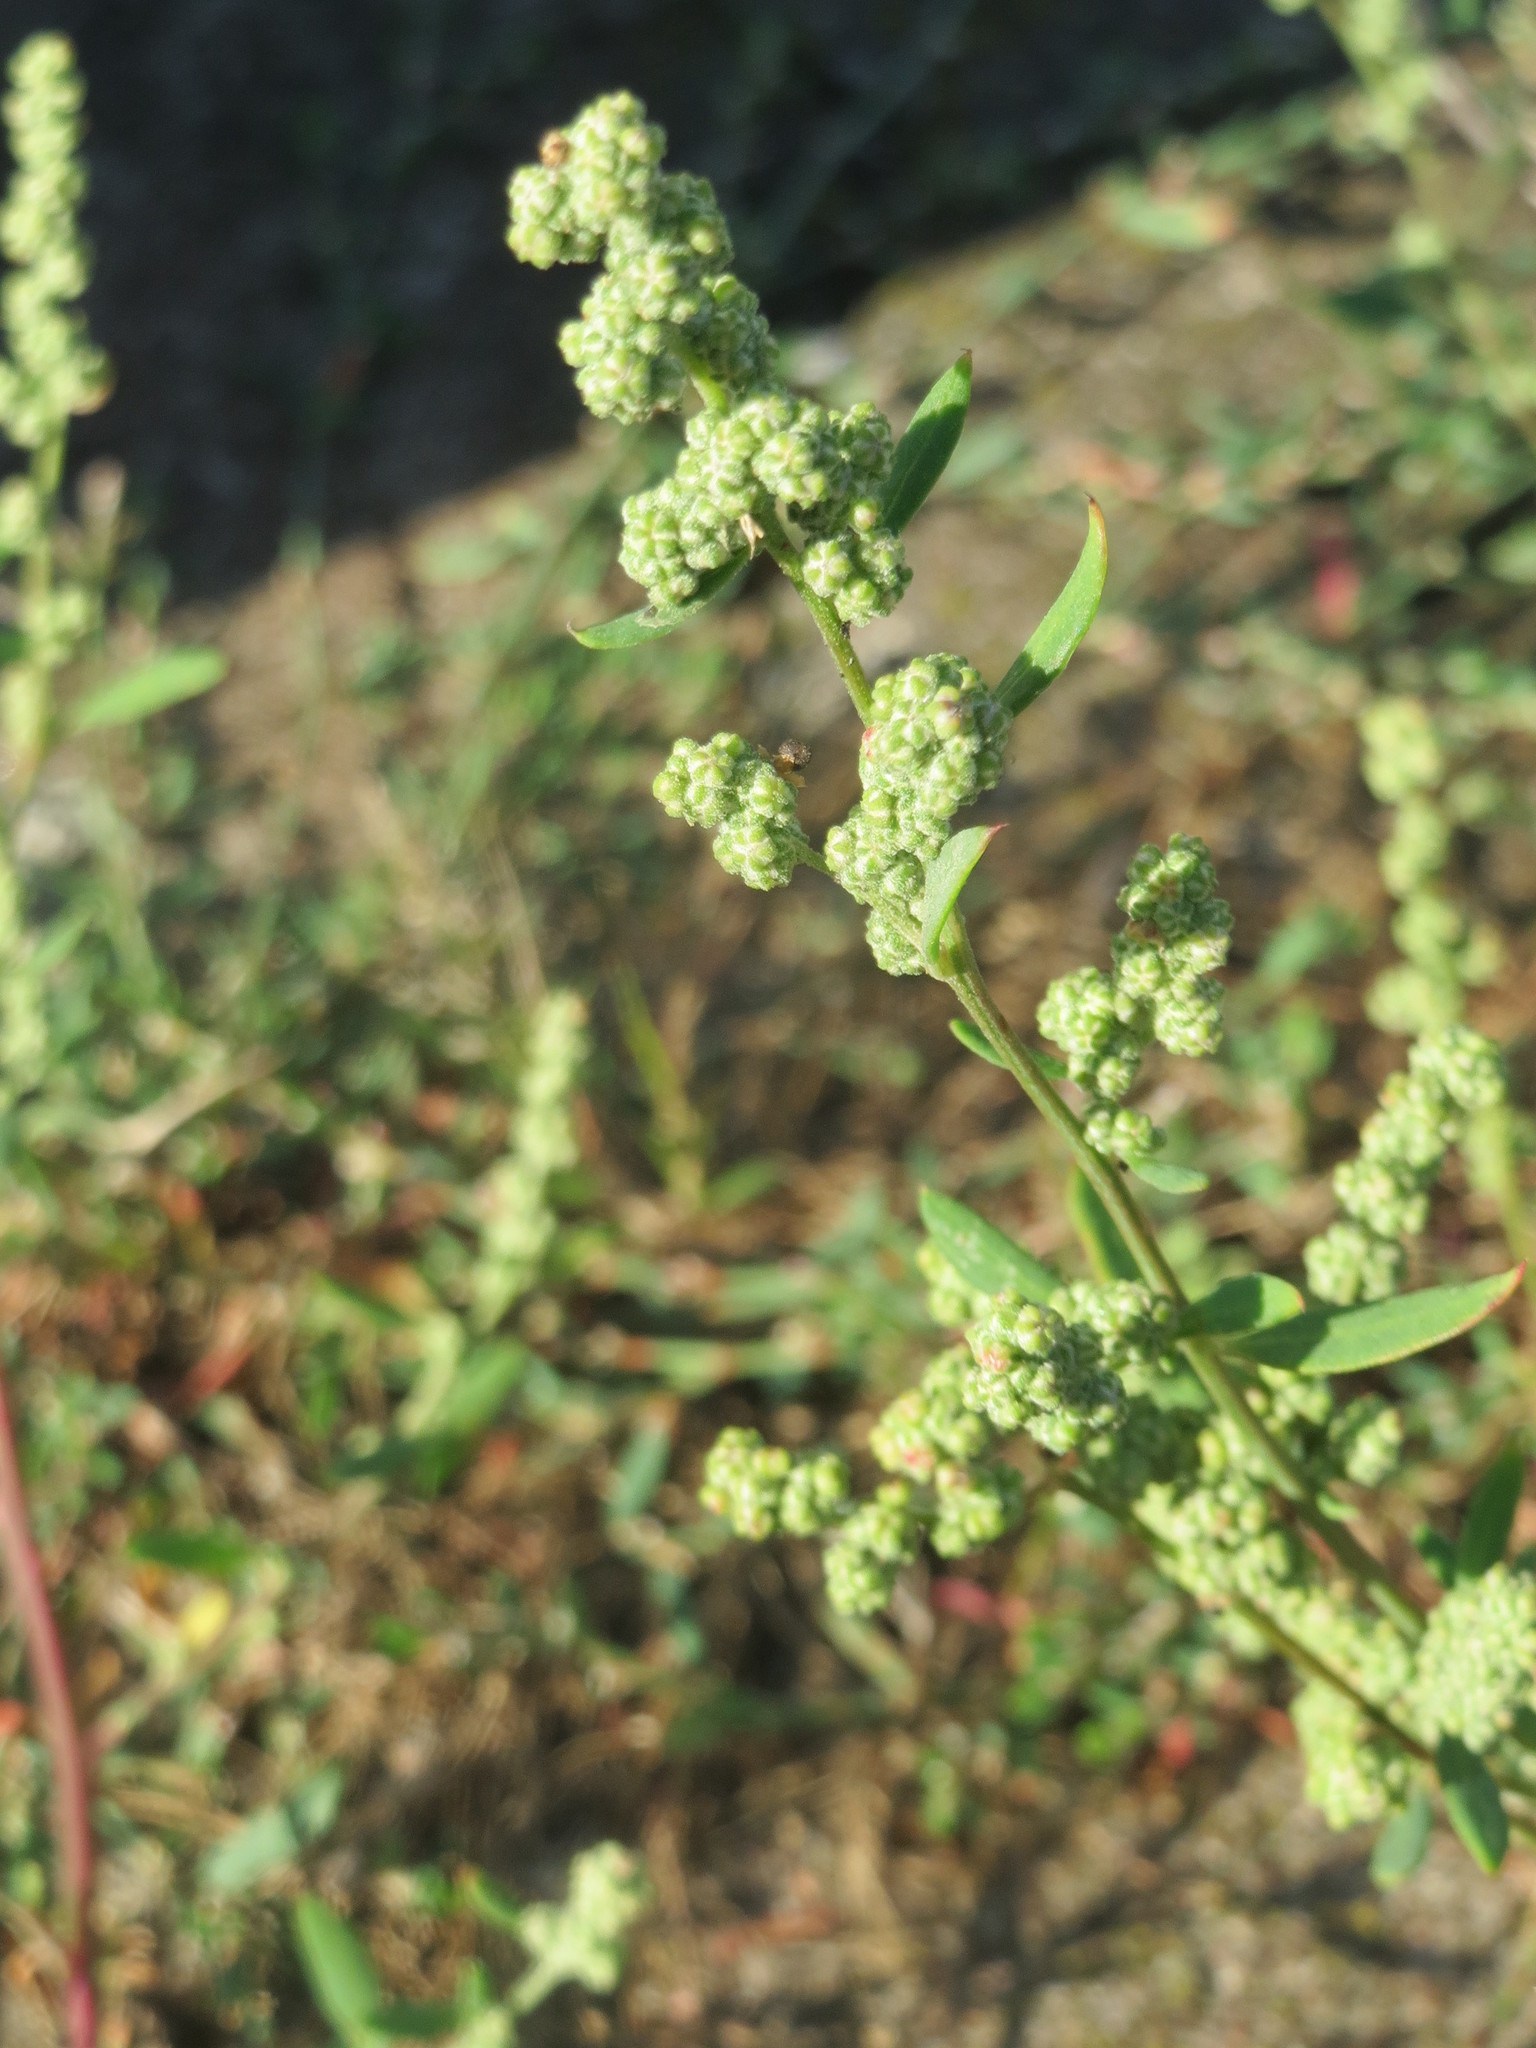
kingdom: Plantae
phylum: Tracheophyta
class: Magnoliopsida
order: Caryophyllales
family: Amaranthaceae
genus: Chenopodium
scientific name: Chenopodium album
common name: Fat-hen
